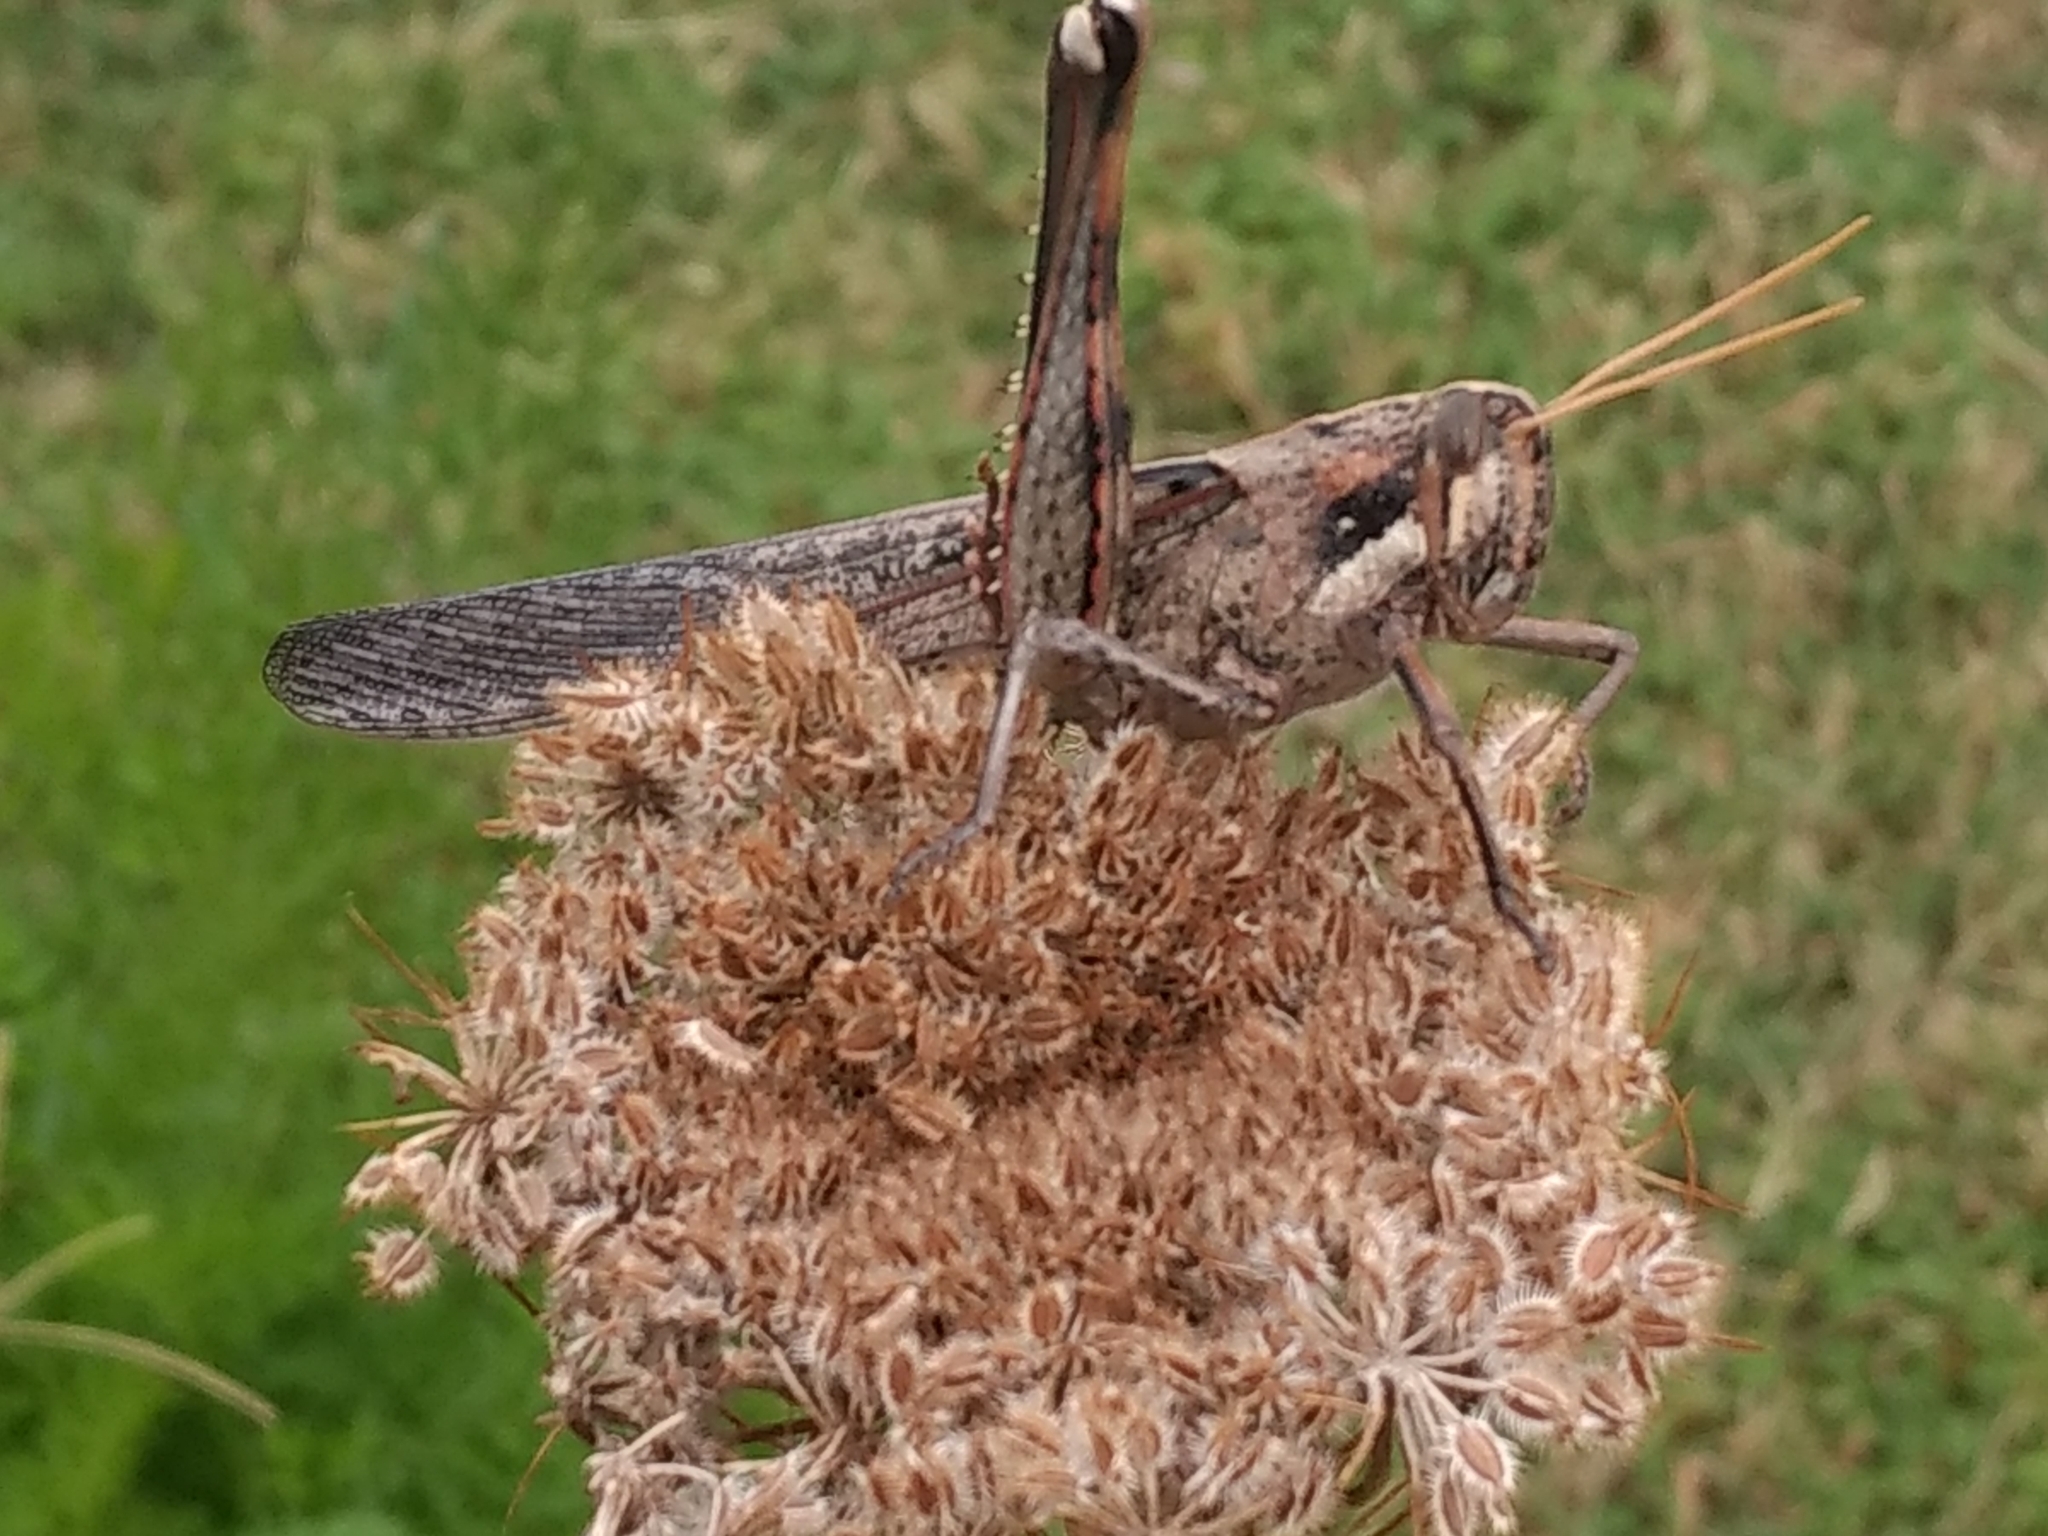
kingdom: Animalia
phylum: Arthropoda
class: Insecta
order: Orthoptera
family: Acrididae
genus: Schistocerca
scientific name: Schistocerca nitens
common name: Vagrant grasshopper
